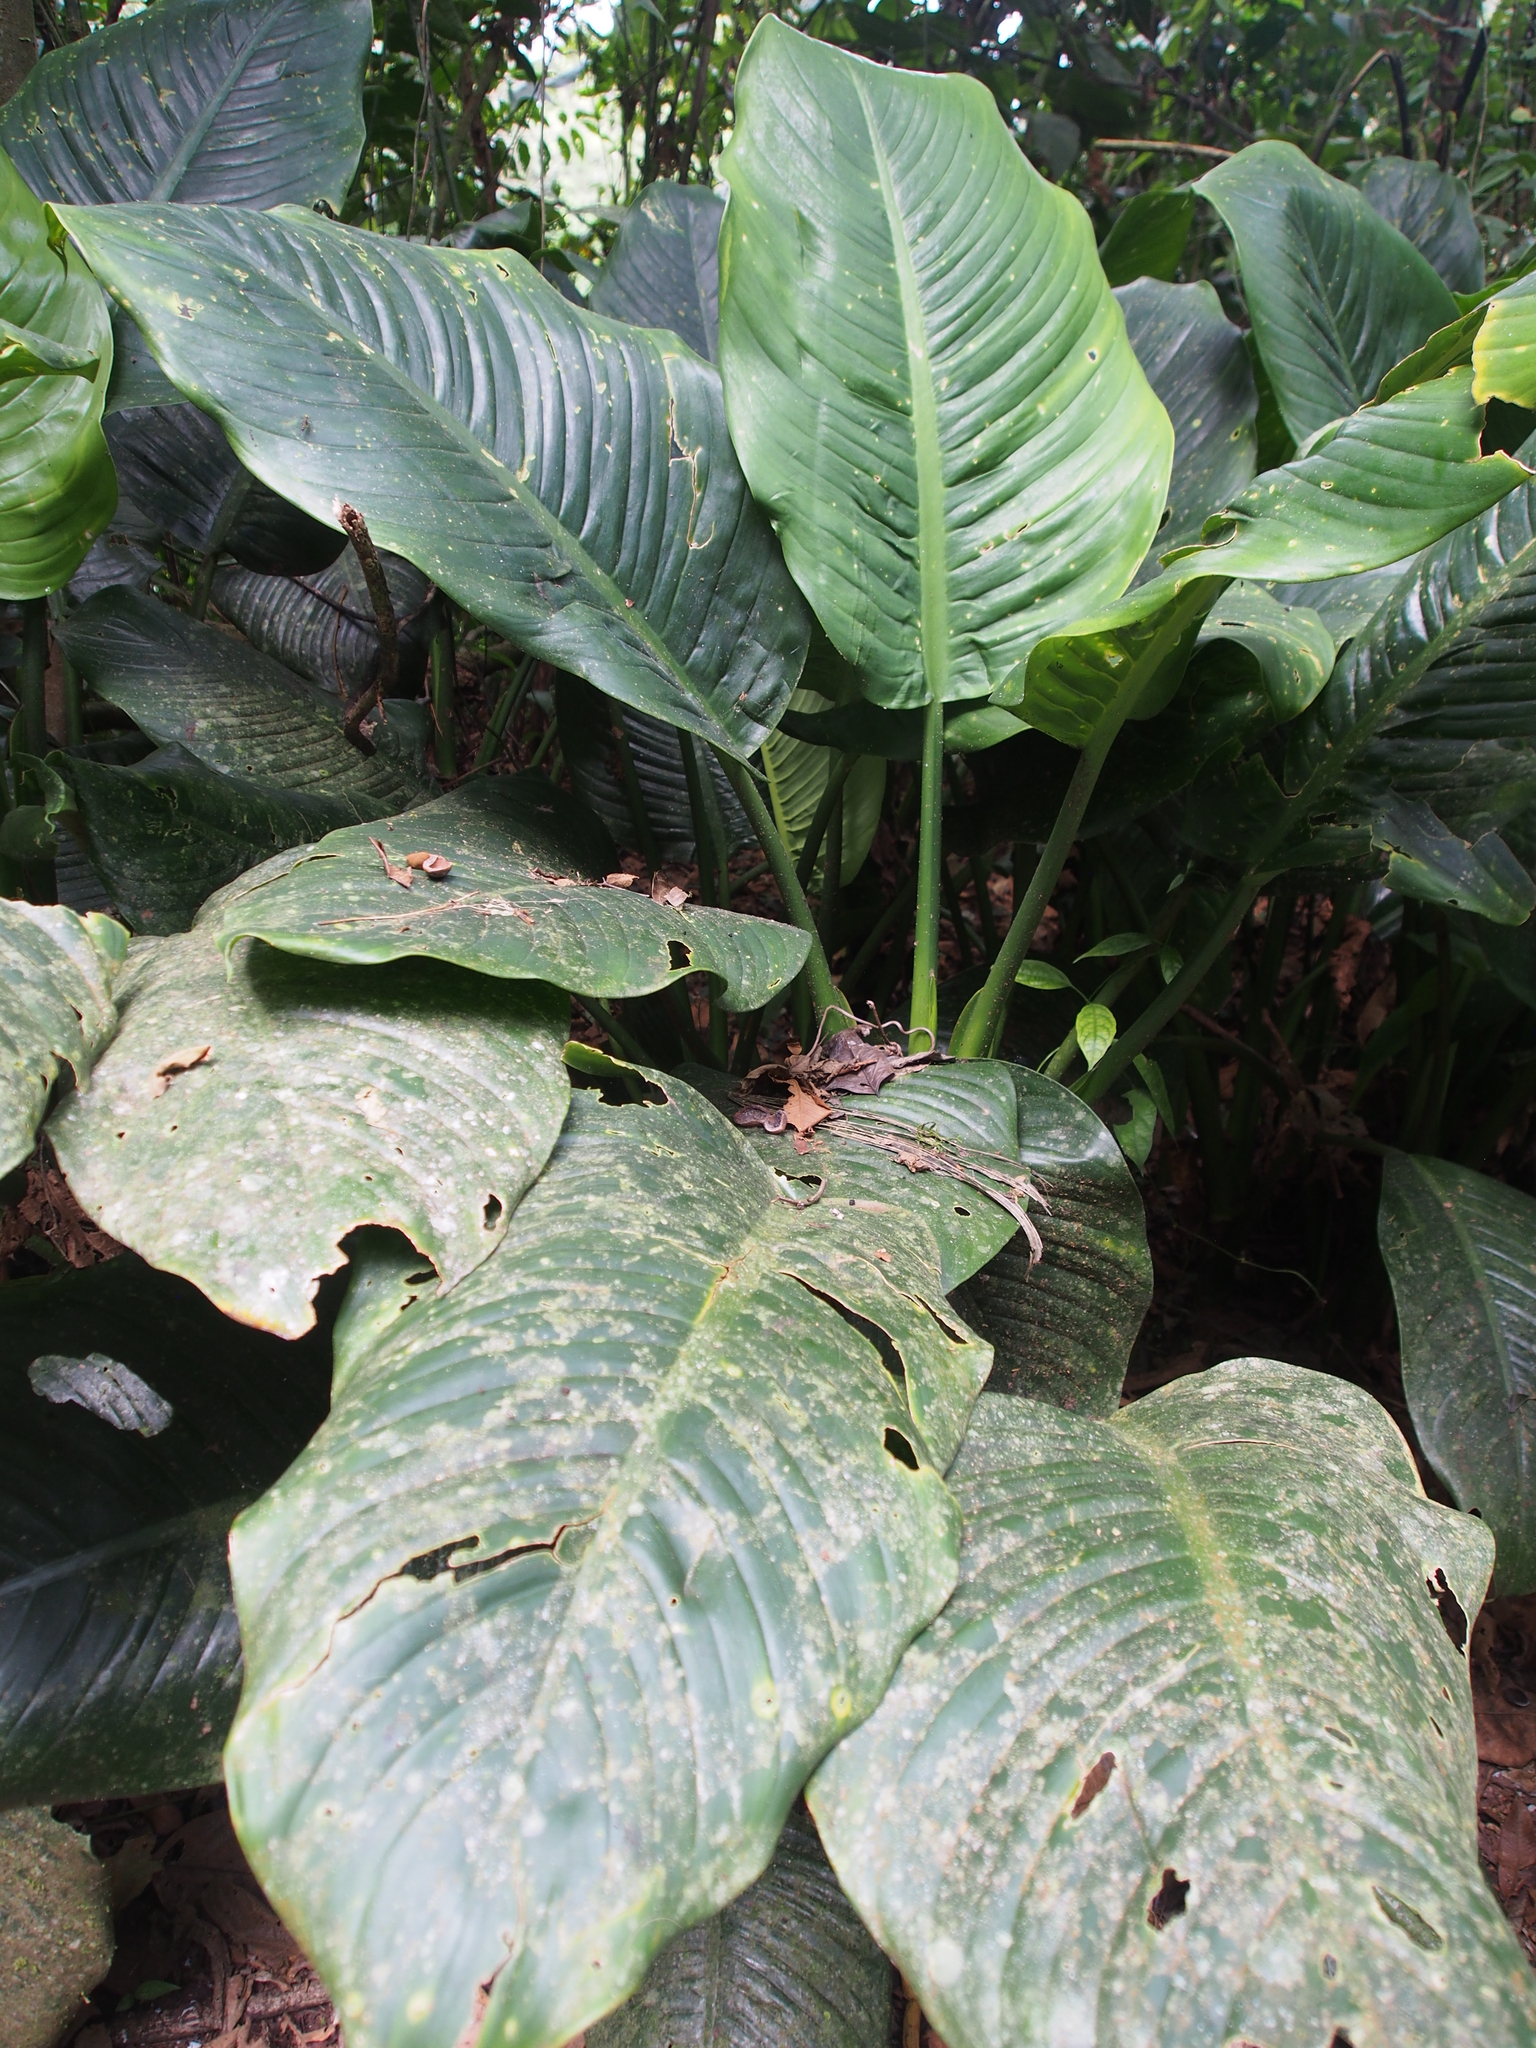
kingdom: Plantae
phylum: Tracheophyta
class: Liliopsida
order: Alismatales
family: Araceae
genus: Dieffenbachia
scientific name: Dieffenbachia nitidipetiolata
